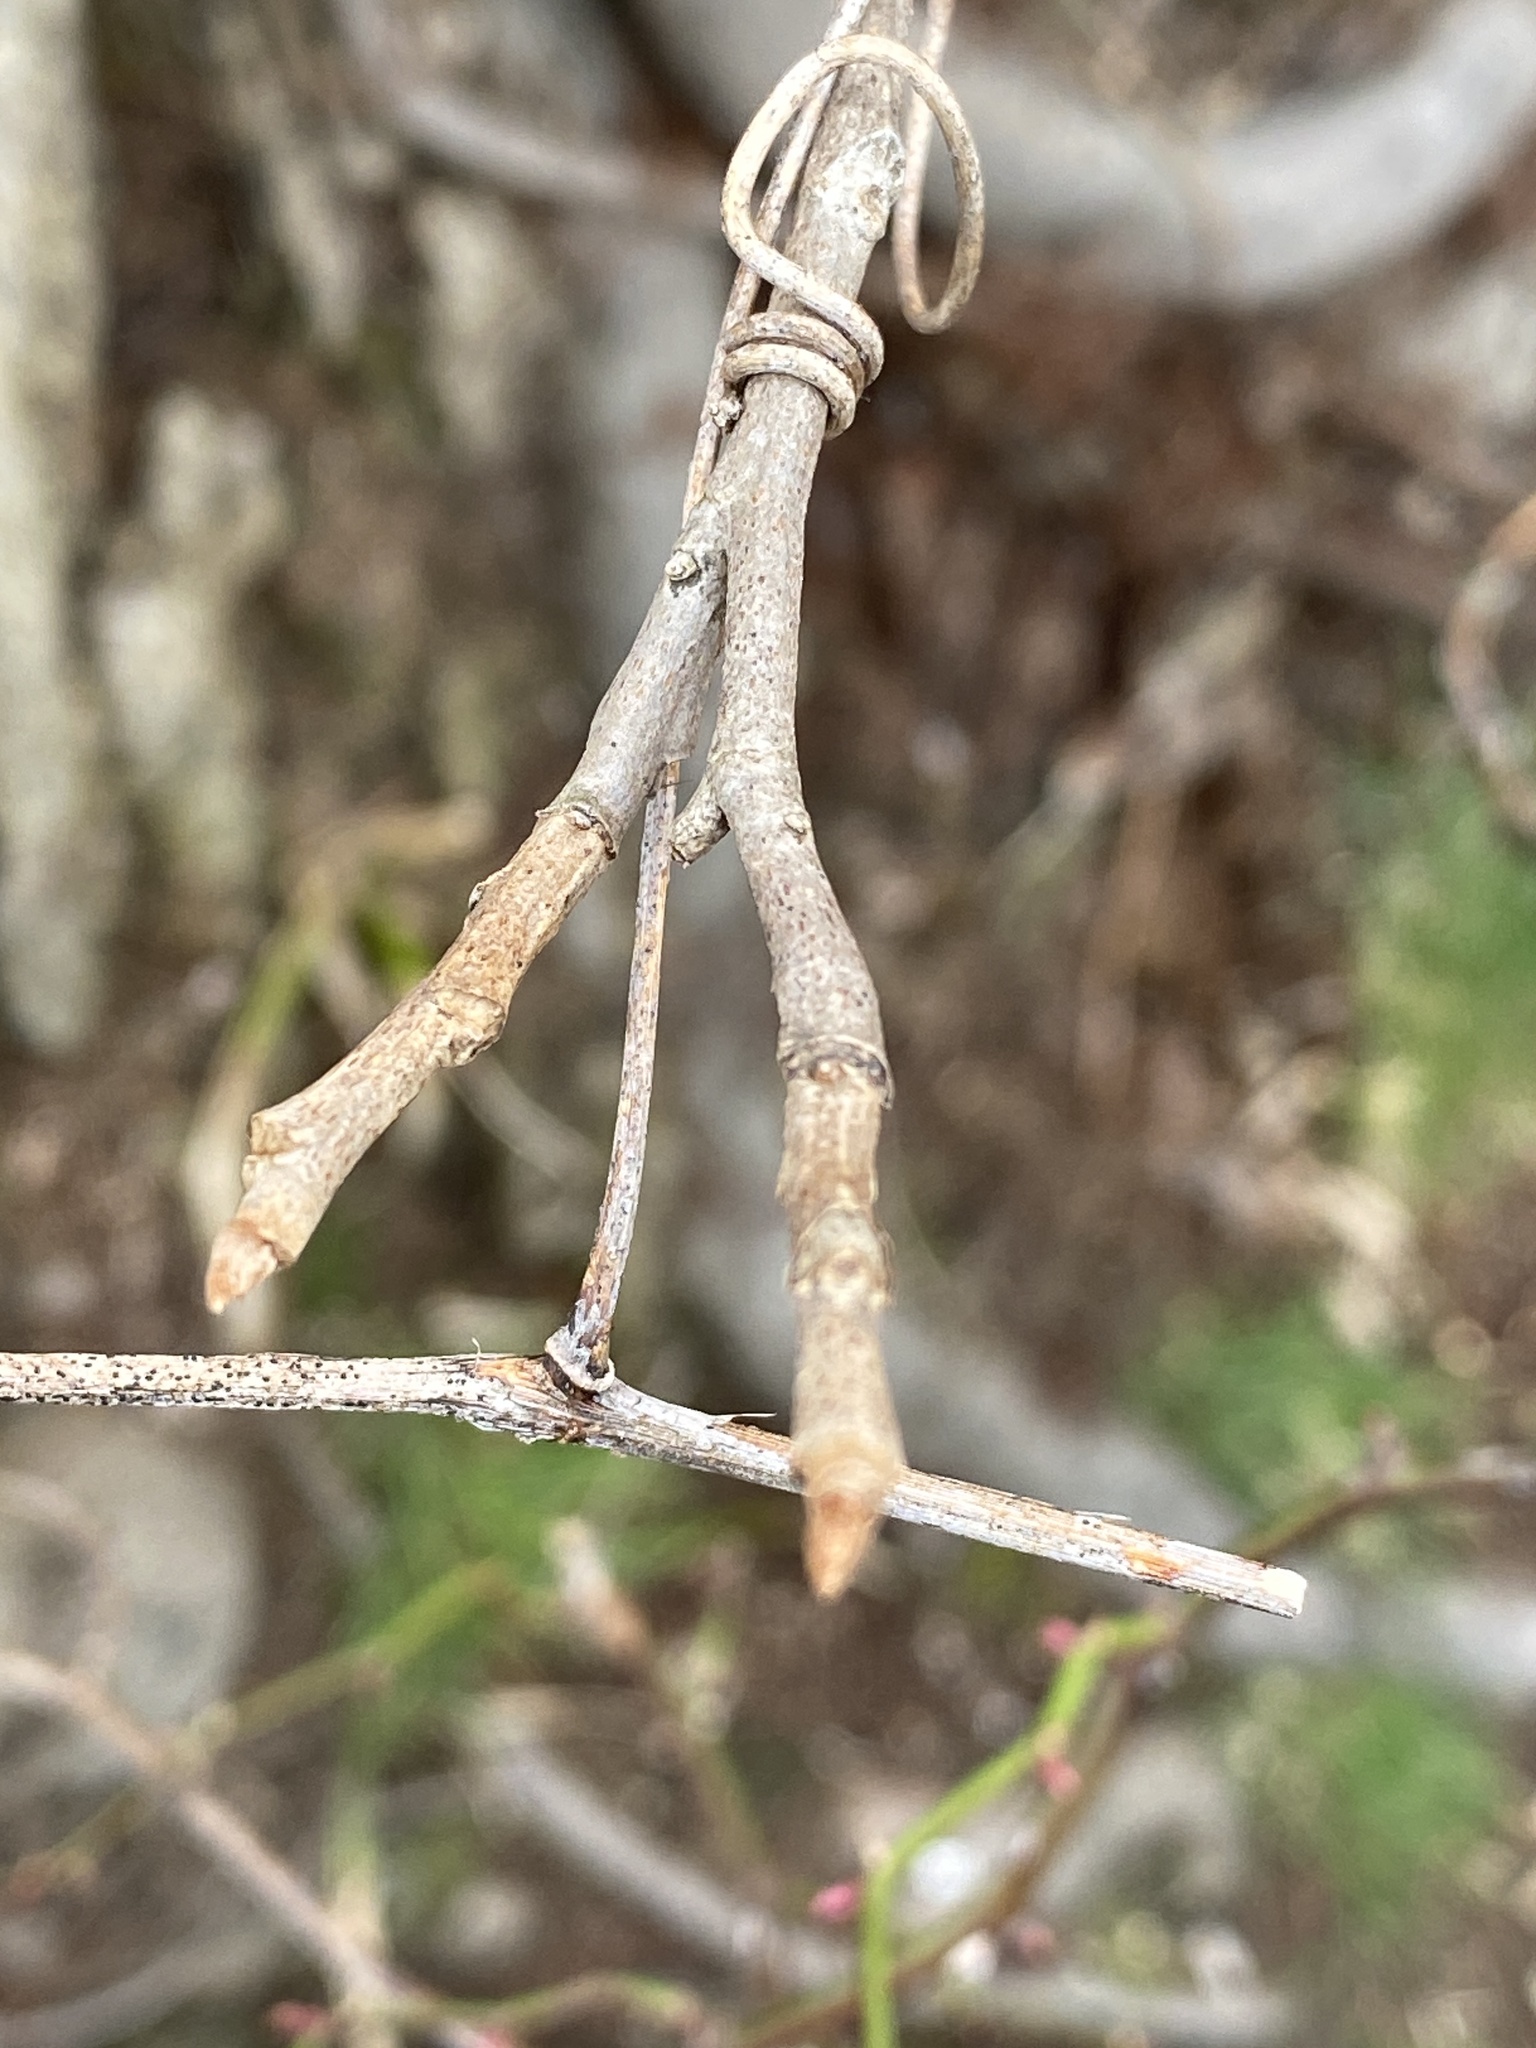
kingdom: Plantae
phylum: Tracheophyta
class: Magnoliopsida
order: Sapindales
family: Anacardiaceae
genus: Toxicodendron
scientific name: Toxicodendron radicans
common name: Poison ivy
